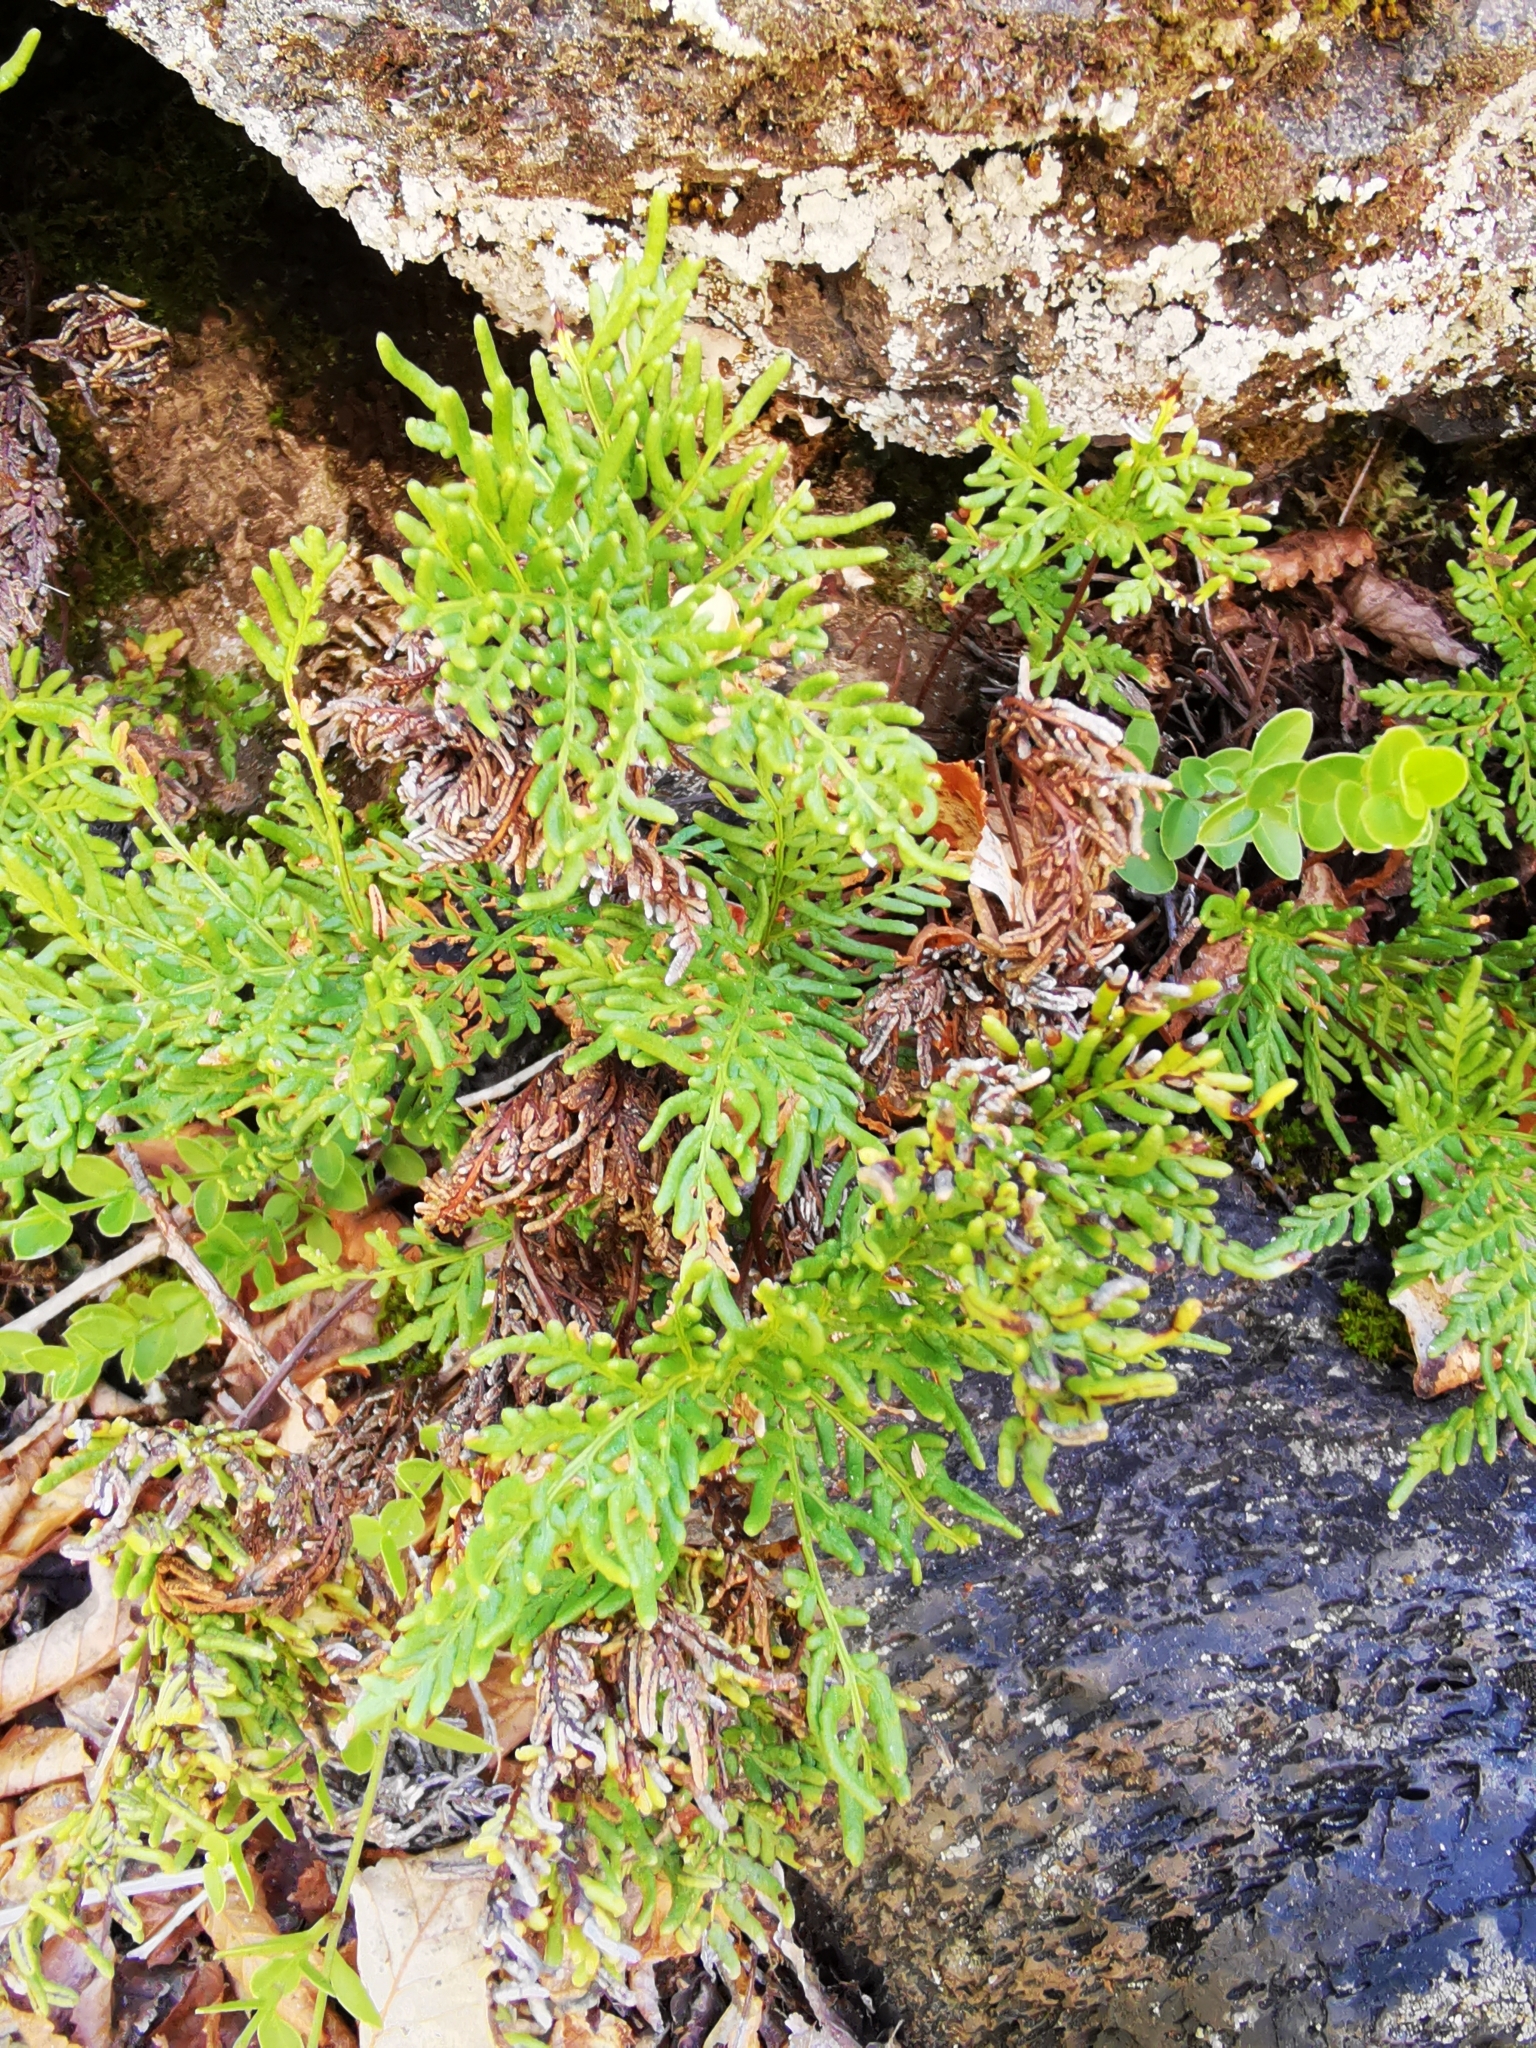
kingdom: Plantae
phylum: Tracheophyta
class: Polypodiopsida
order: Polypodiales
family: Pteridaceae
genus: Cheilanthes
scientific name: Cheilanthes glauca
